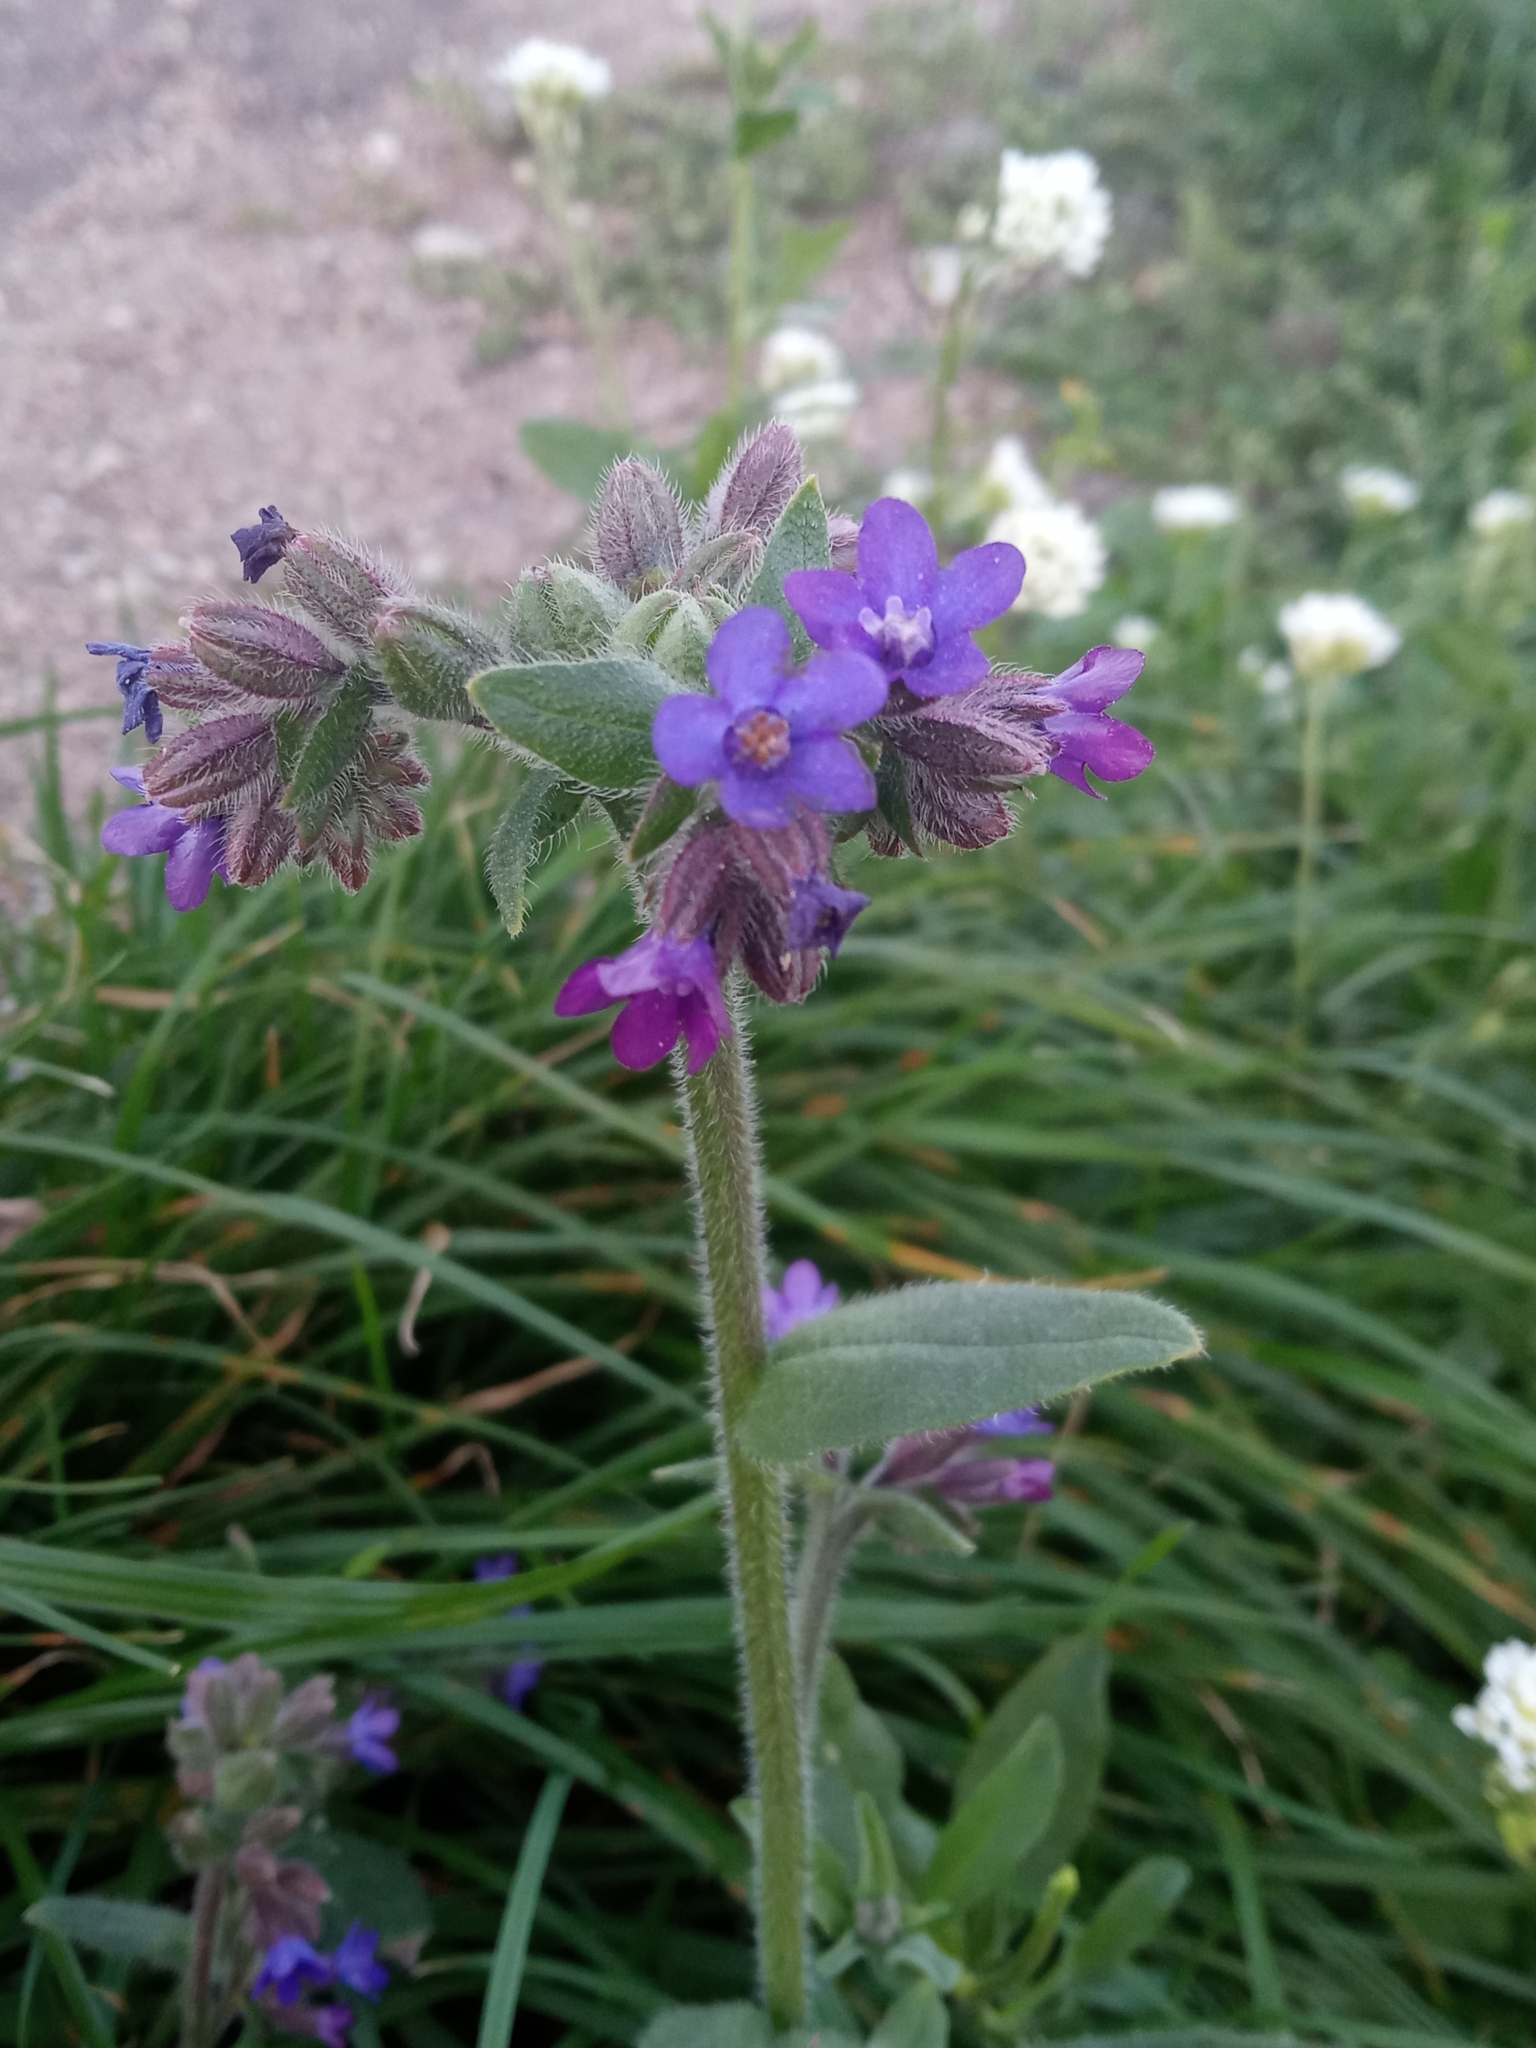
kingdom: Plantae
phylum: Tracheophyta
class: Magnoliopsida
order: Boraginales
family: Boraginaceae
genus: Anchusa
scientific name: Anchusa officinalis
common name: Alkanet
